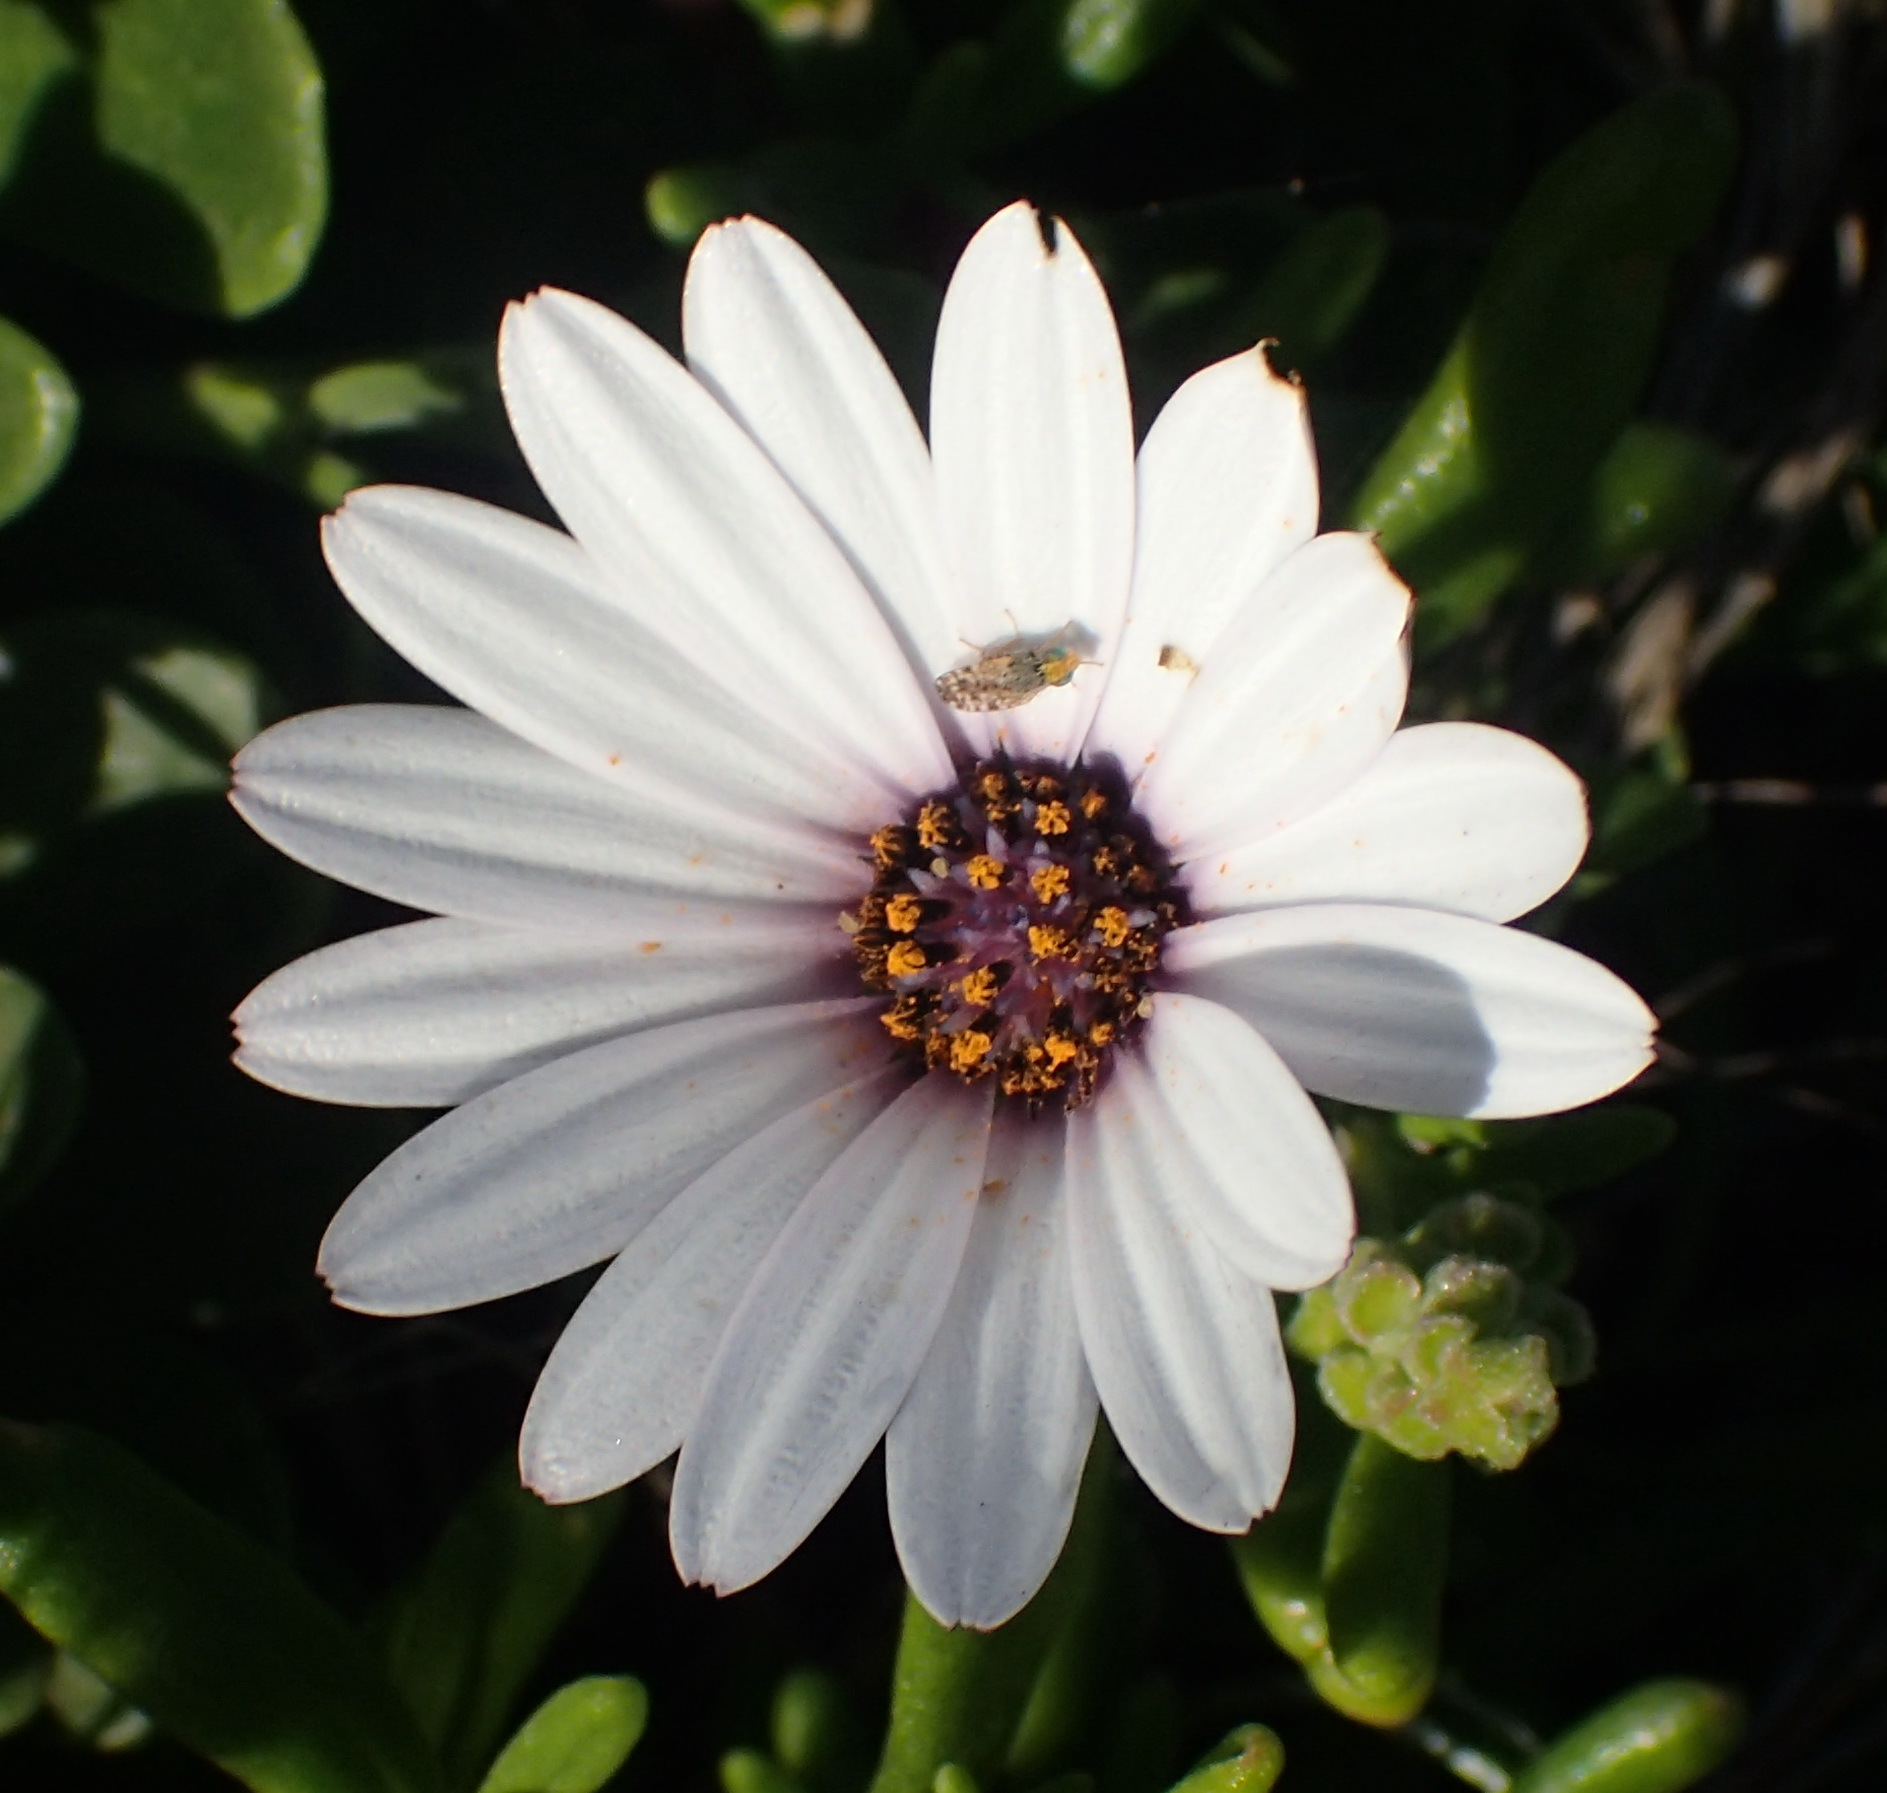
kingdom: Plantae
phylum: Tracheophyta
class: Magnoliopsida
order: Asterales
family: Asteraceae
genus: Dimorphotheca
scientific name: Dimorphotheca fruticosa
